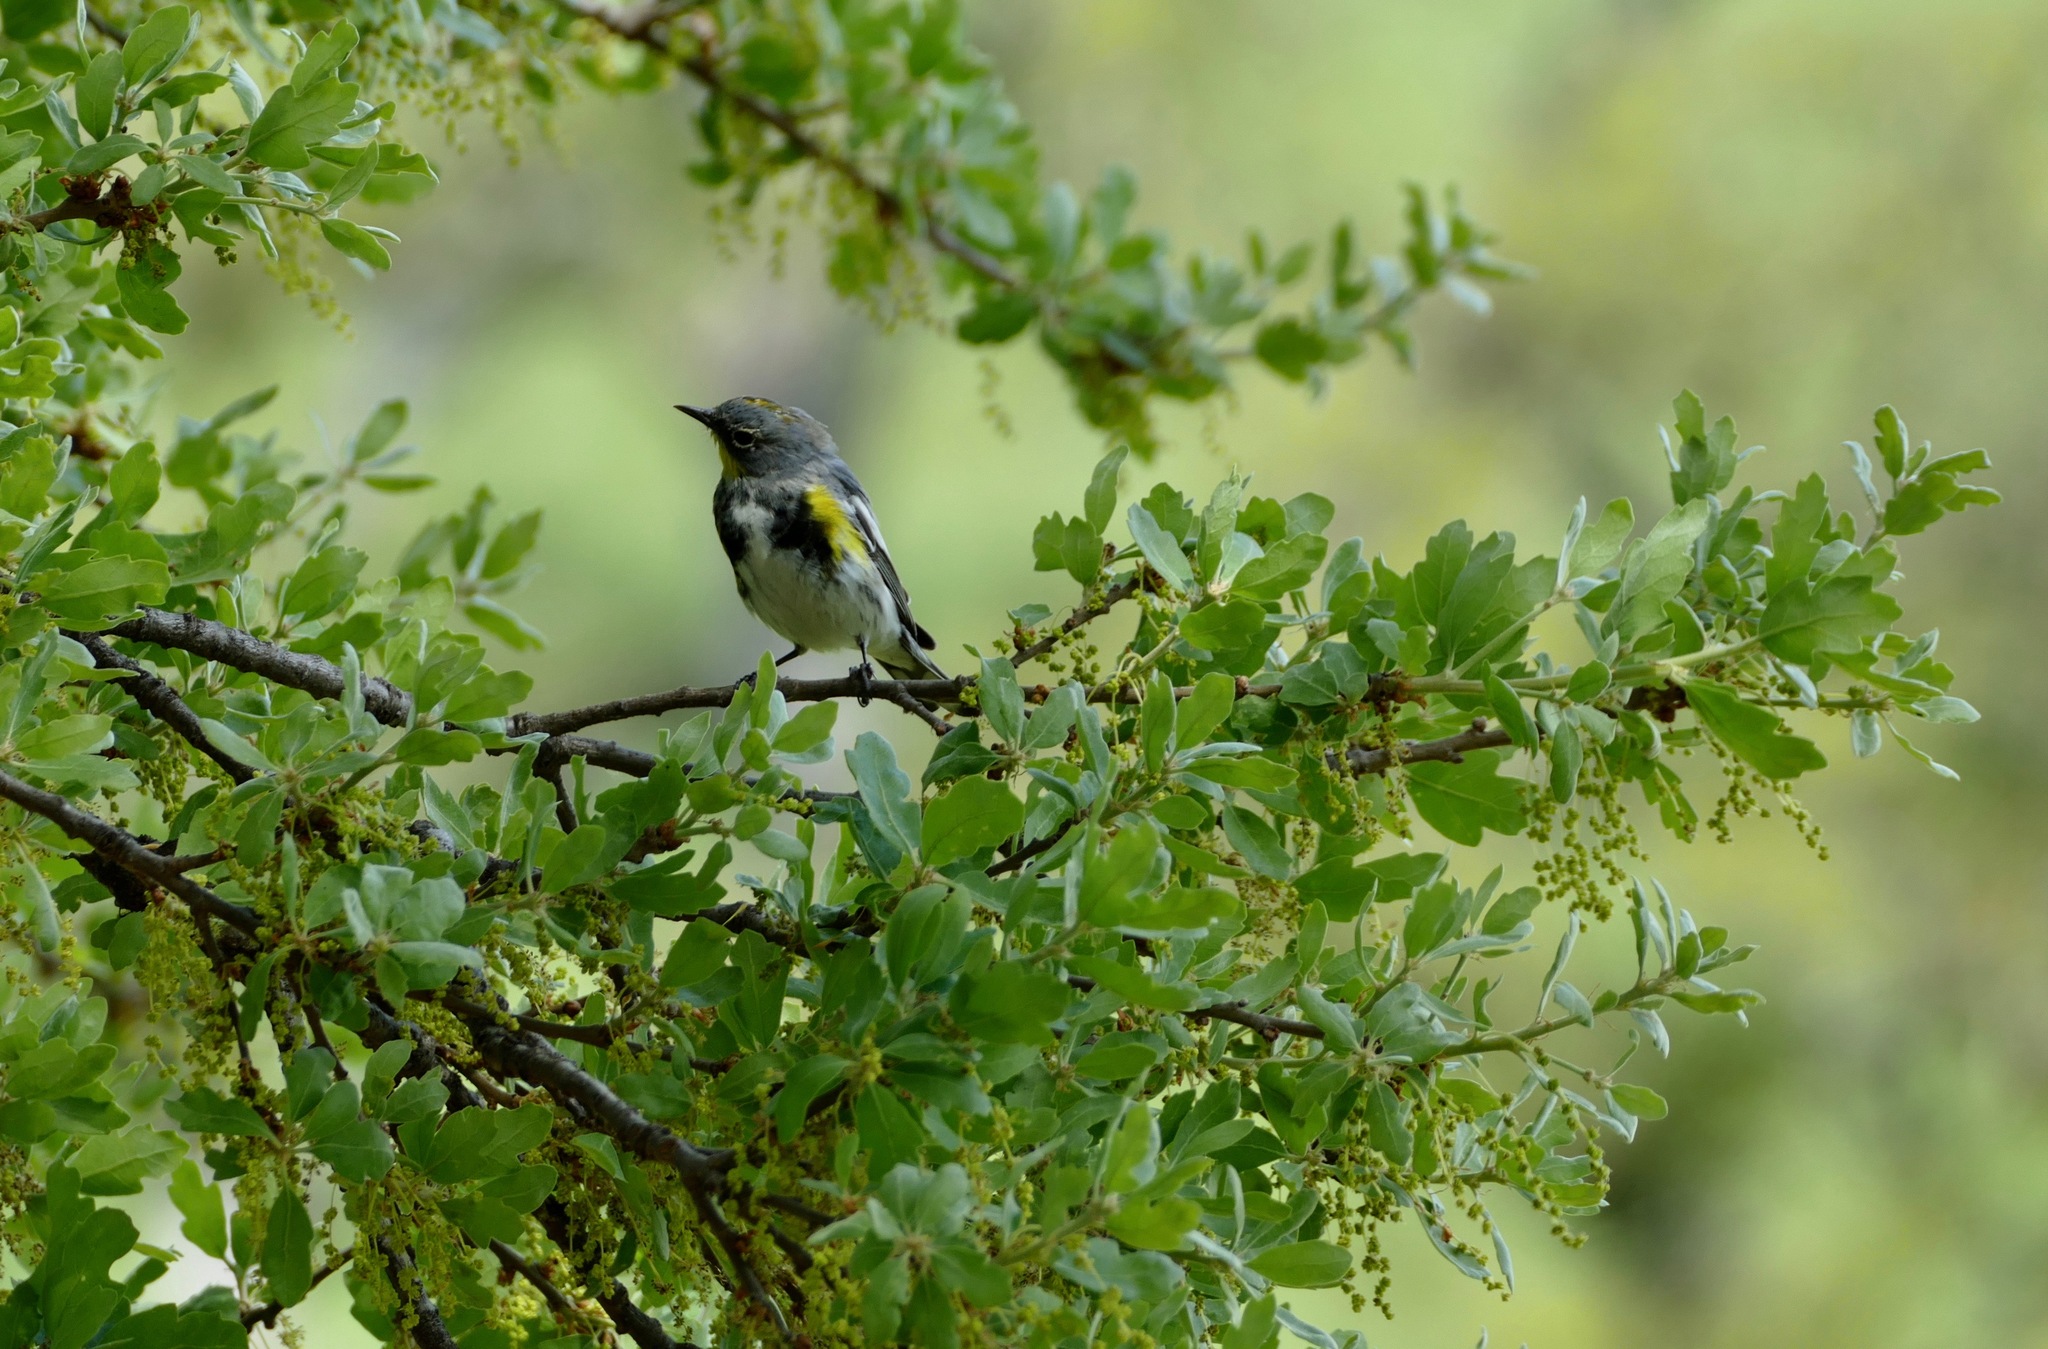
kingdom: Animalia
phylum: Chordata
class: Aves
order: Passeriformes
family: Parulidae
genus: Setophaga
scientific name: Setophaga coronata
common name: Myrtle warbler
